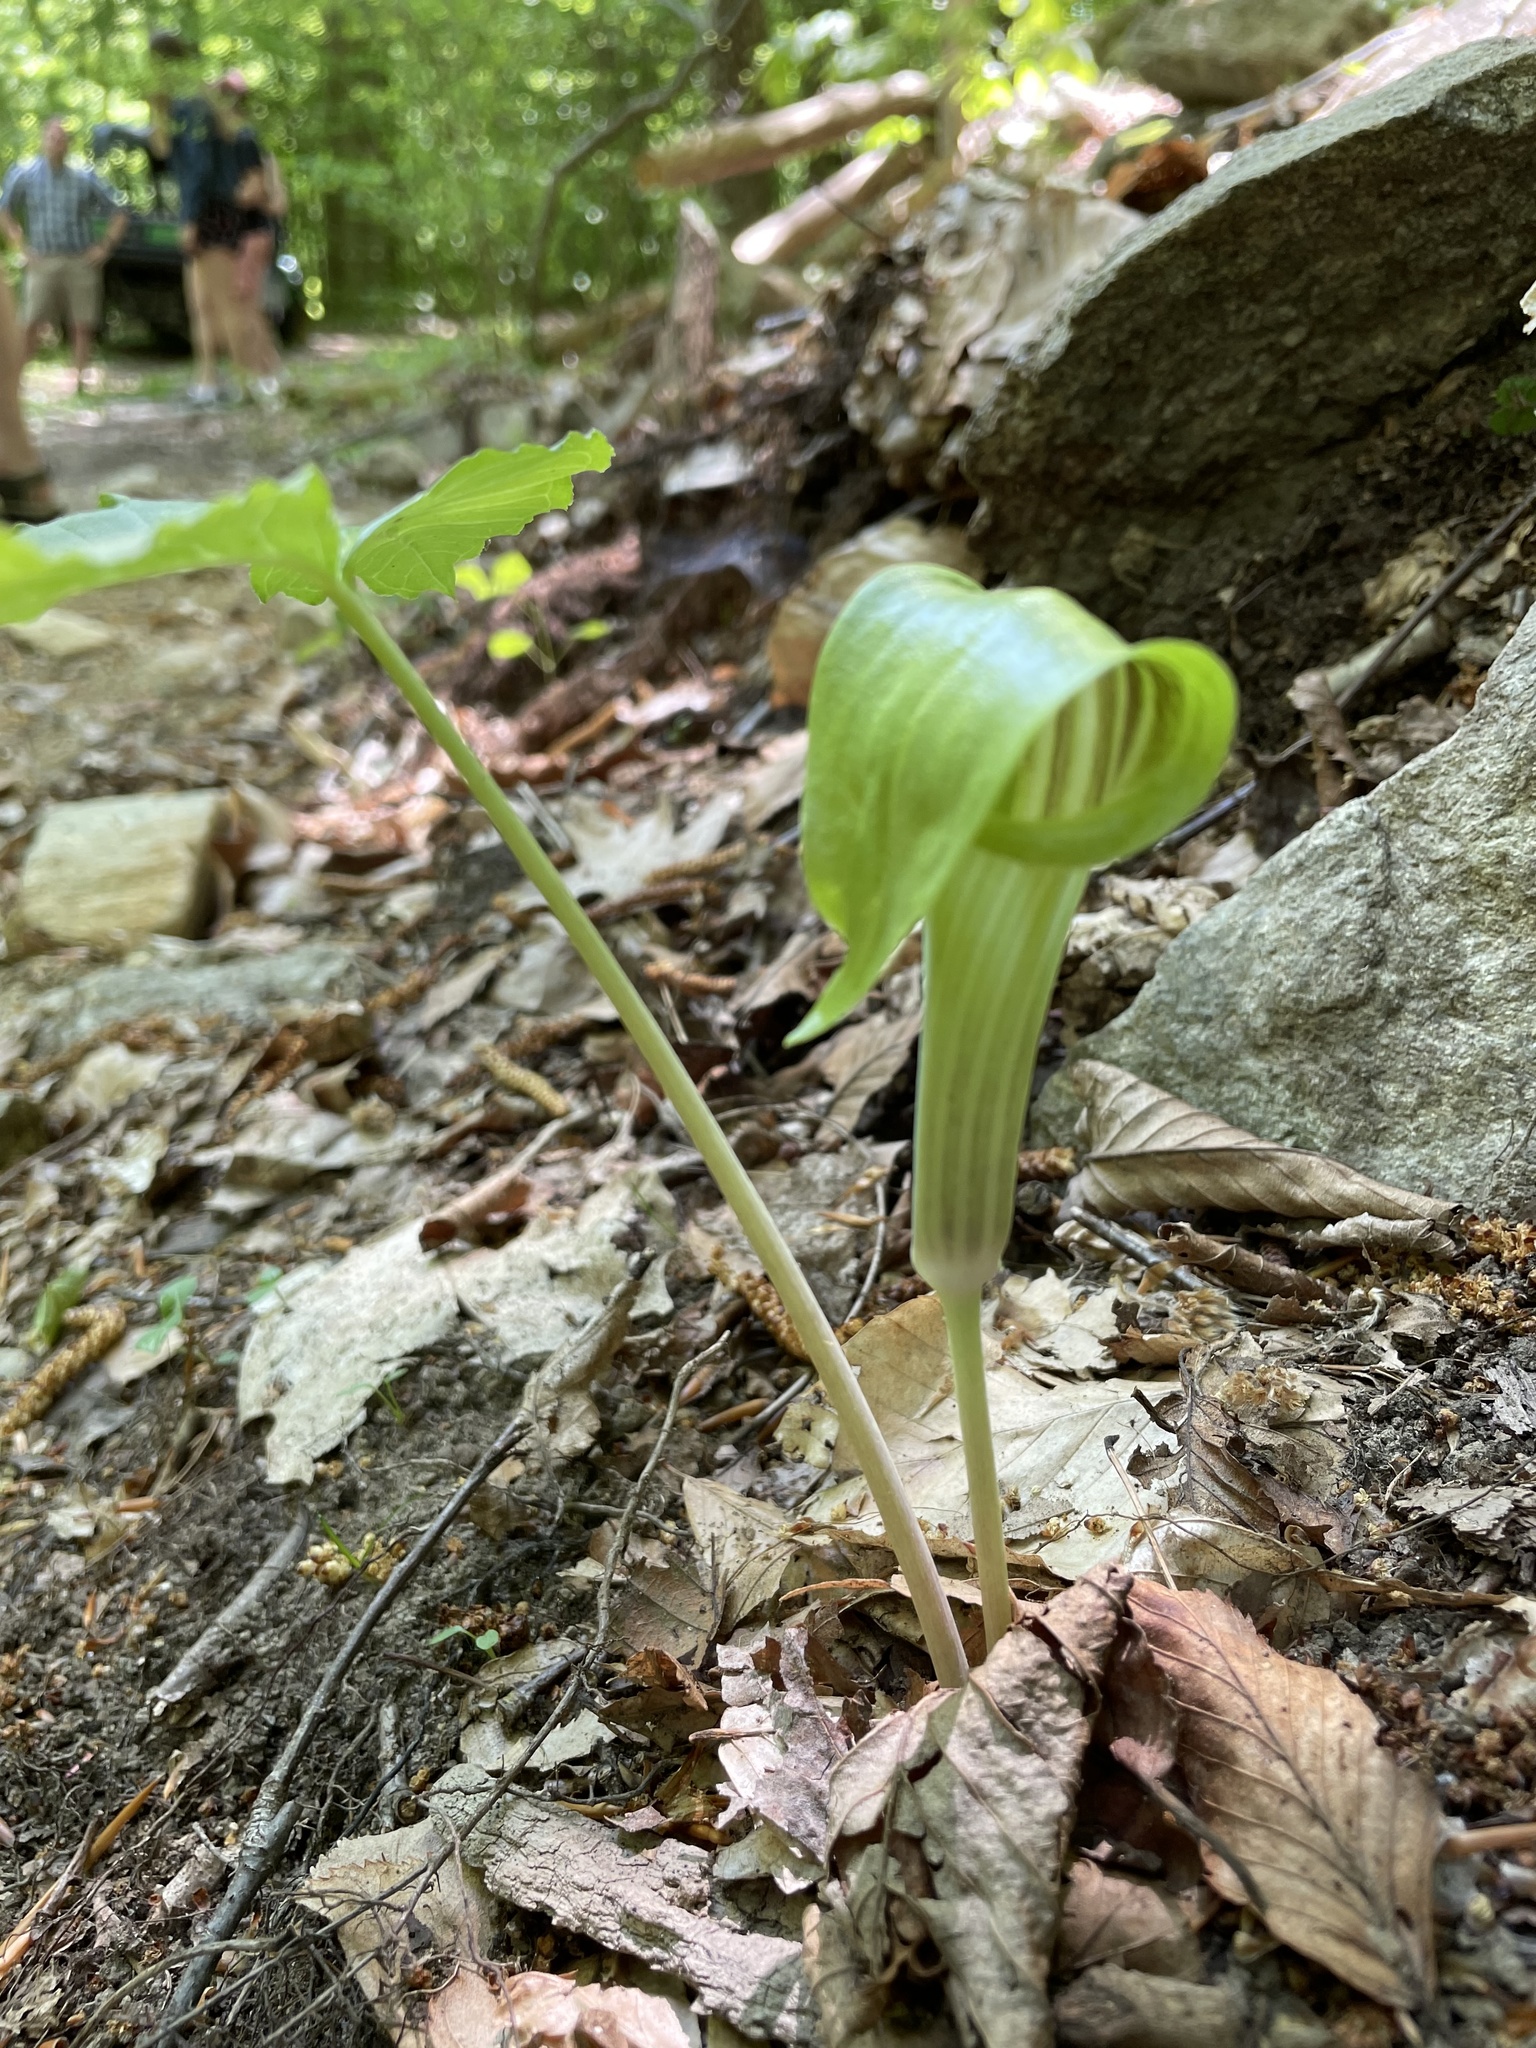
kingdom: Plantae
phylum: Tracheophyta
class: Liliopsida
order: Alismatales
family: Araceae
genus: Arisaema
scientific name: Arisaema triphyllum
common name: Jack-in-the-pulpit
